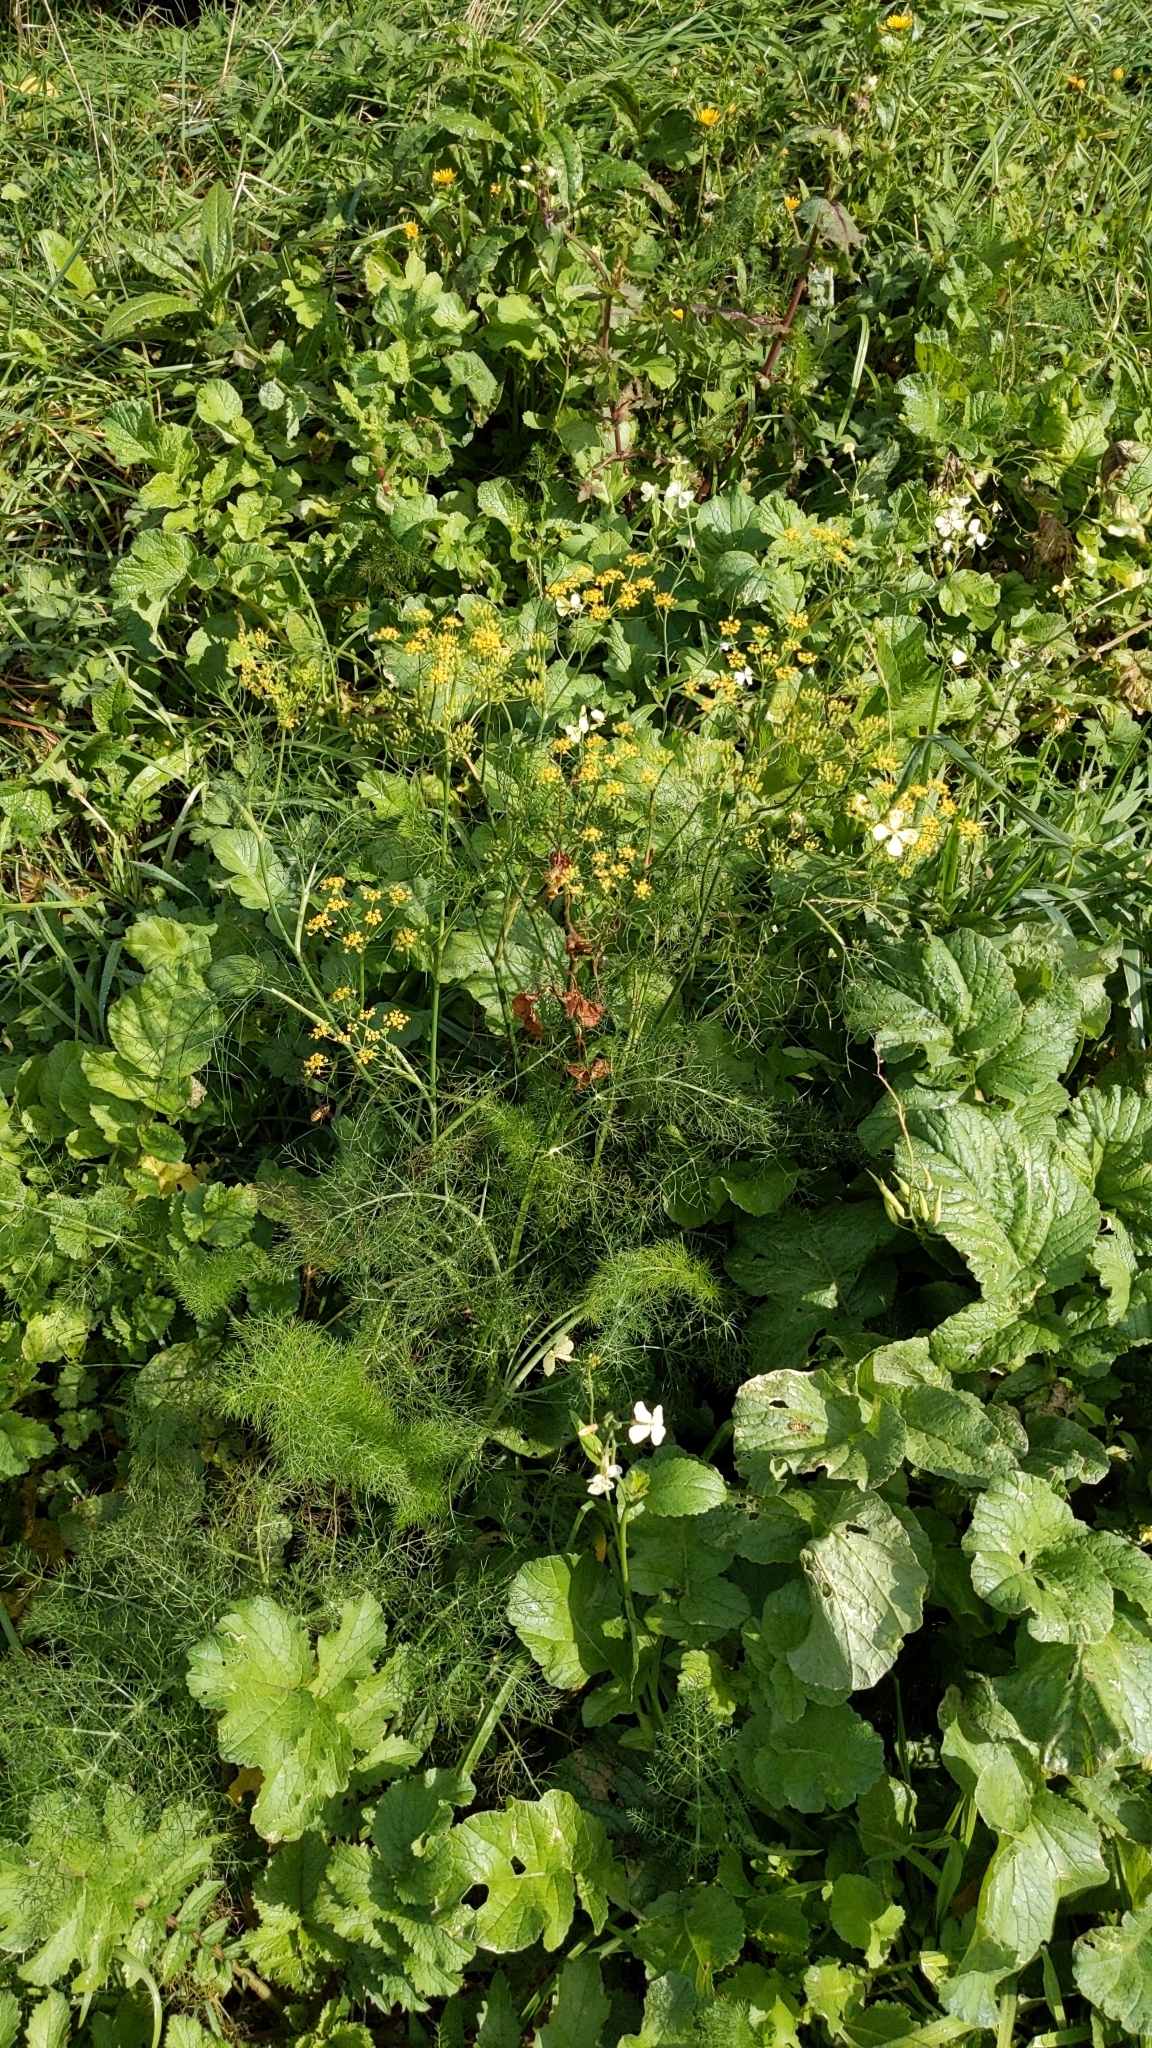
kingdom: Plantae
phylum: Tracheophyta
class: Magnoliopsida
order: Apiales
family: Apiaceae
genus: Foeniculum
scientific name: Foeniculum vulgare
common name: Fennel
